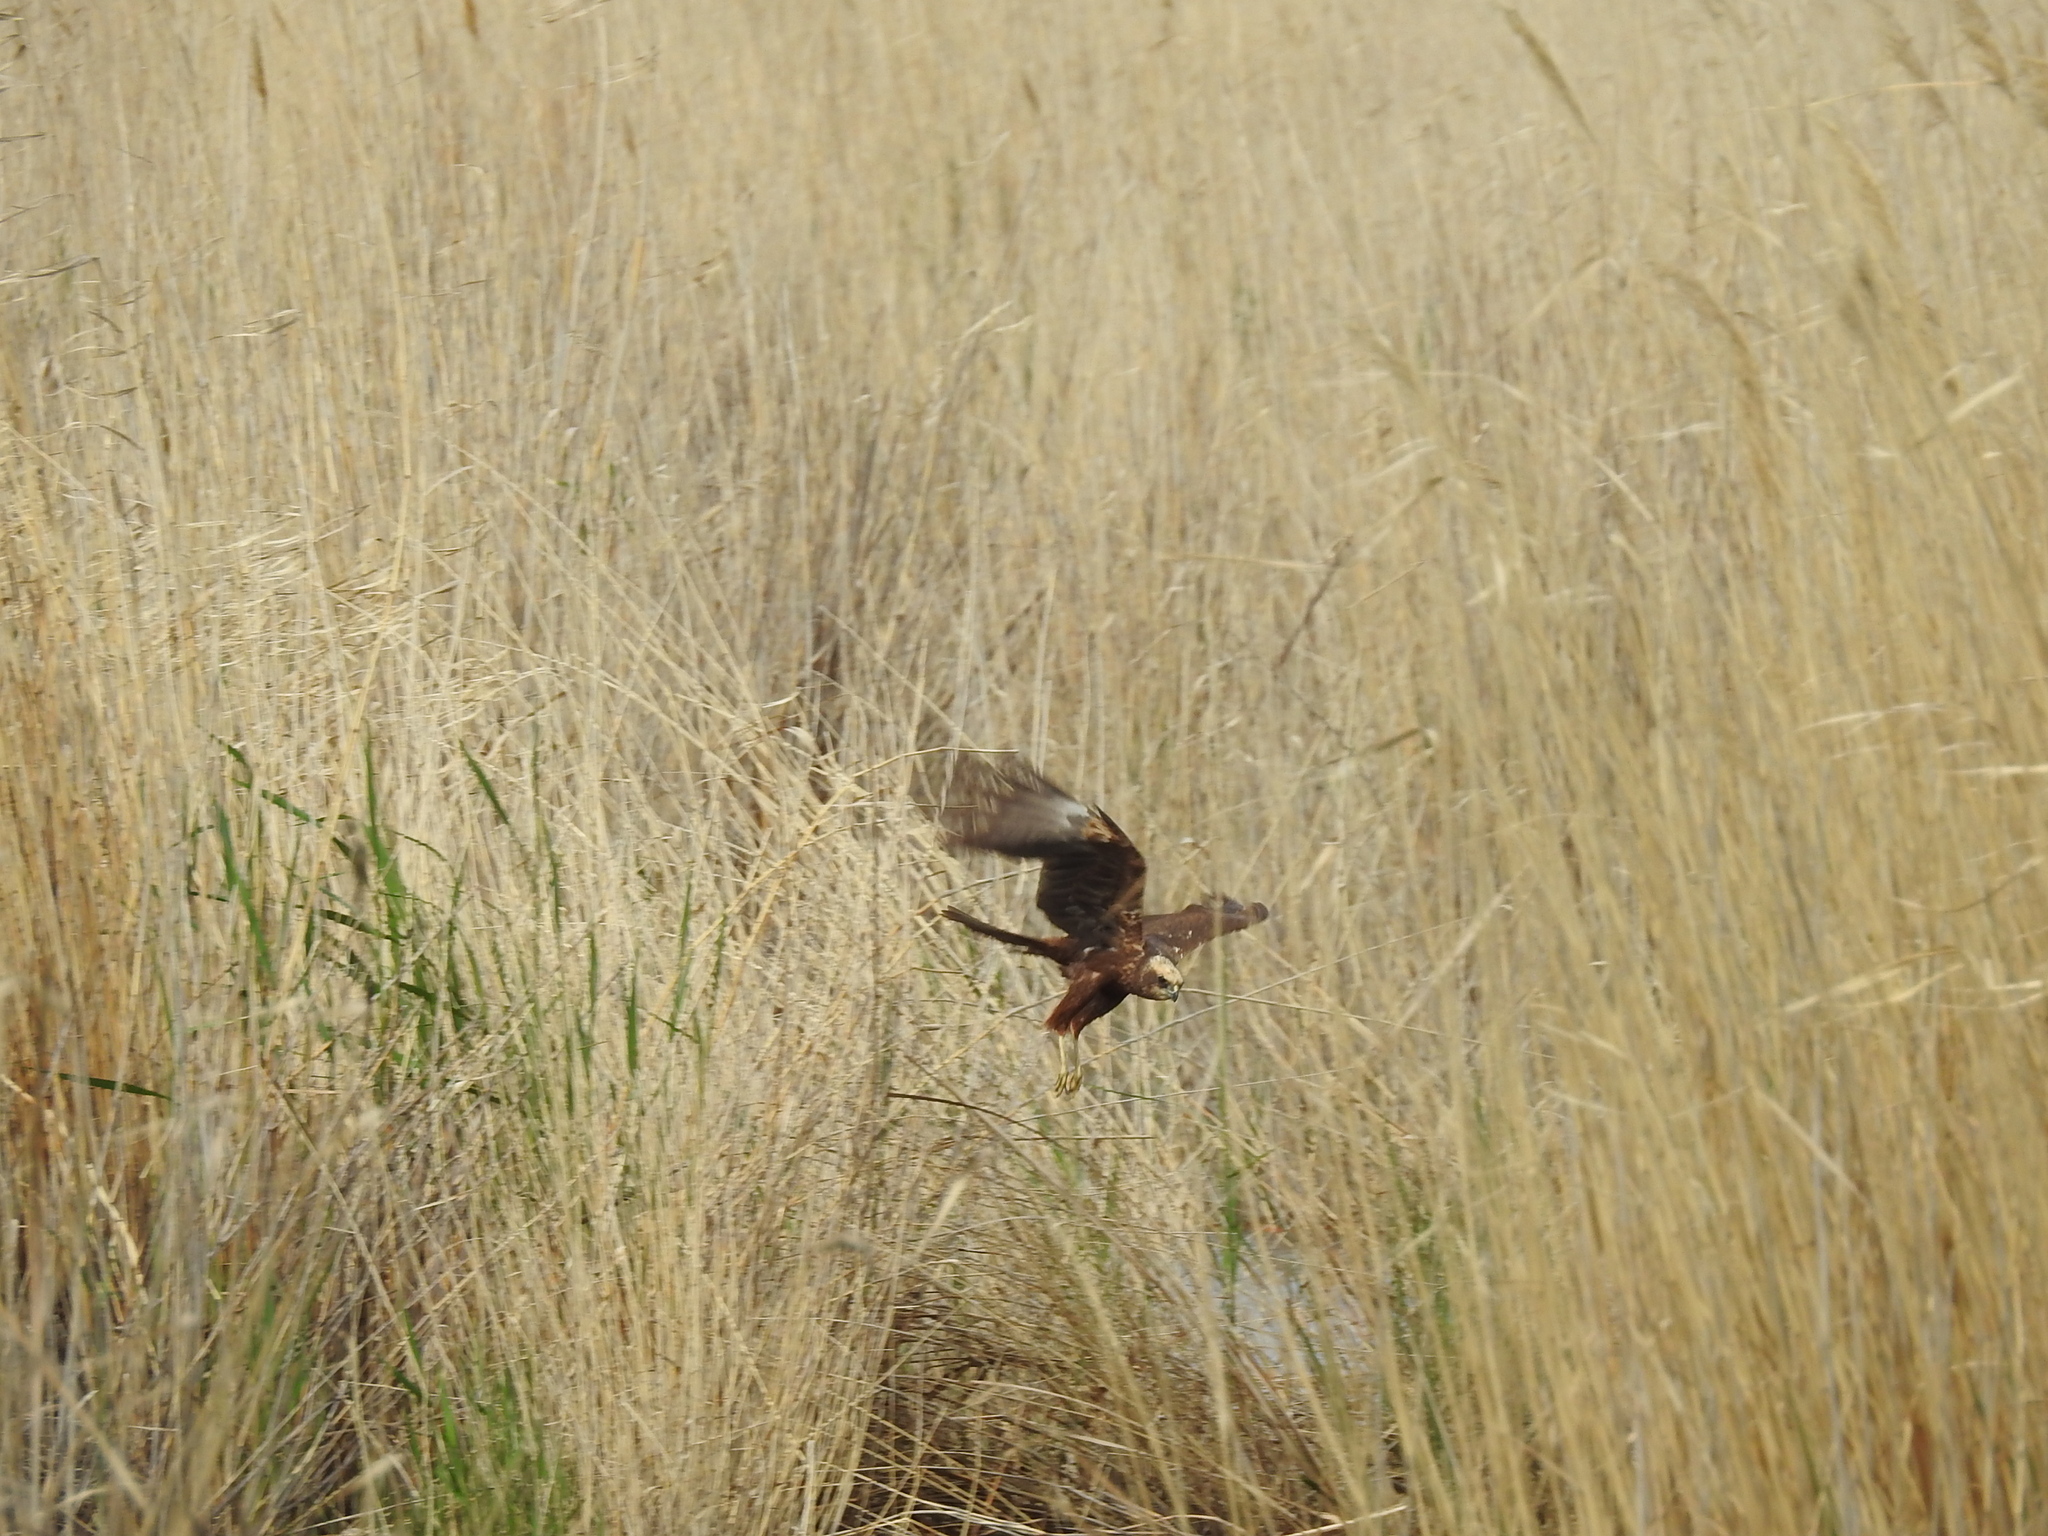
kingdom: Animalia
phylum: Chordata
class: Aves
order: Accipitriformes
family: Accipitridae
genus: Circus
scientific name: Circus aeruginosus
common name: Western marsh harrier
